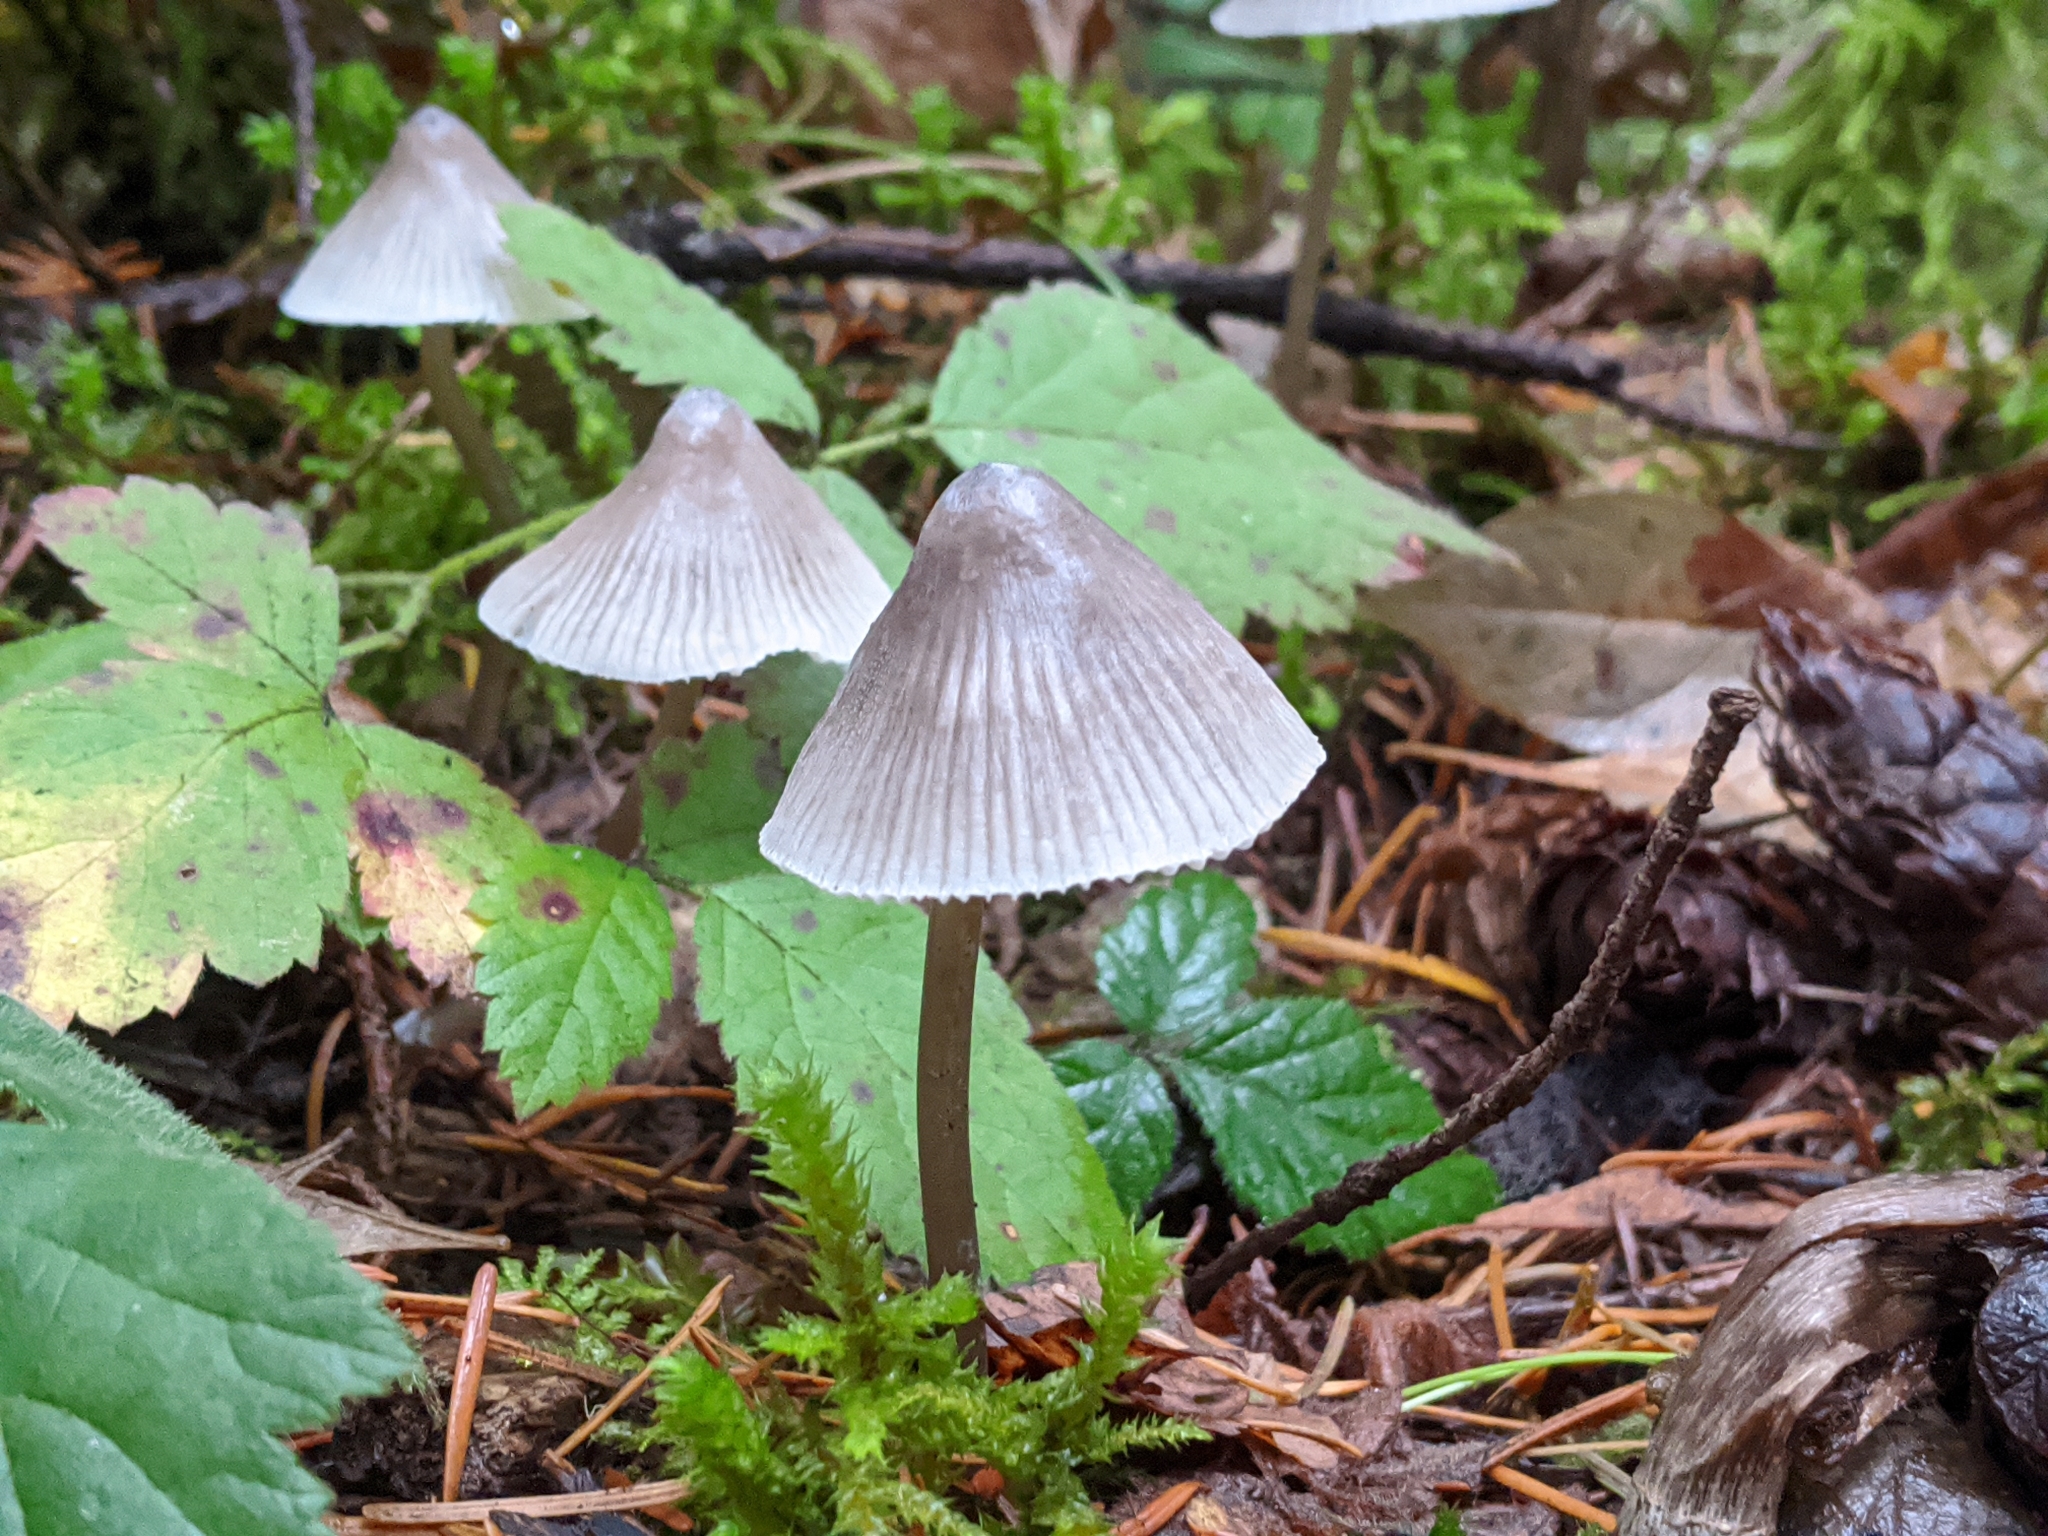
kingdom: Fungi
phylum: Basidiomycota
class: Agaricomycetes
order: Agaricales
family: Mycenaceae
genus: Mycena
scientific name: Mycena robusta
